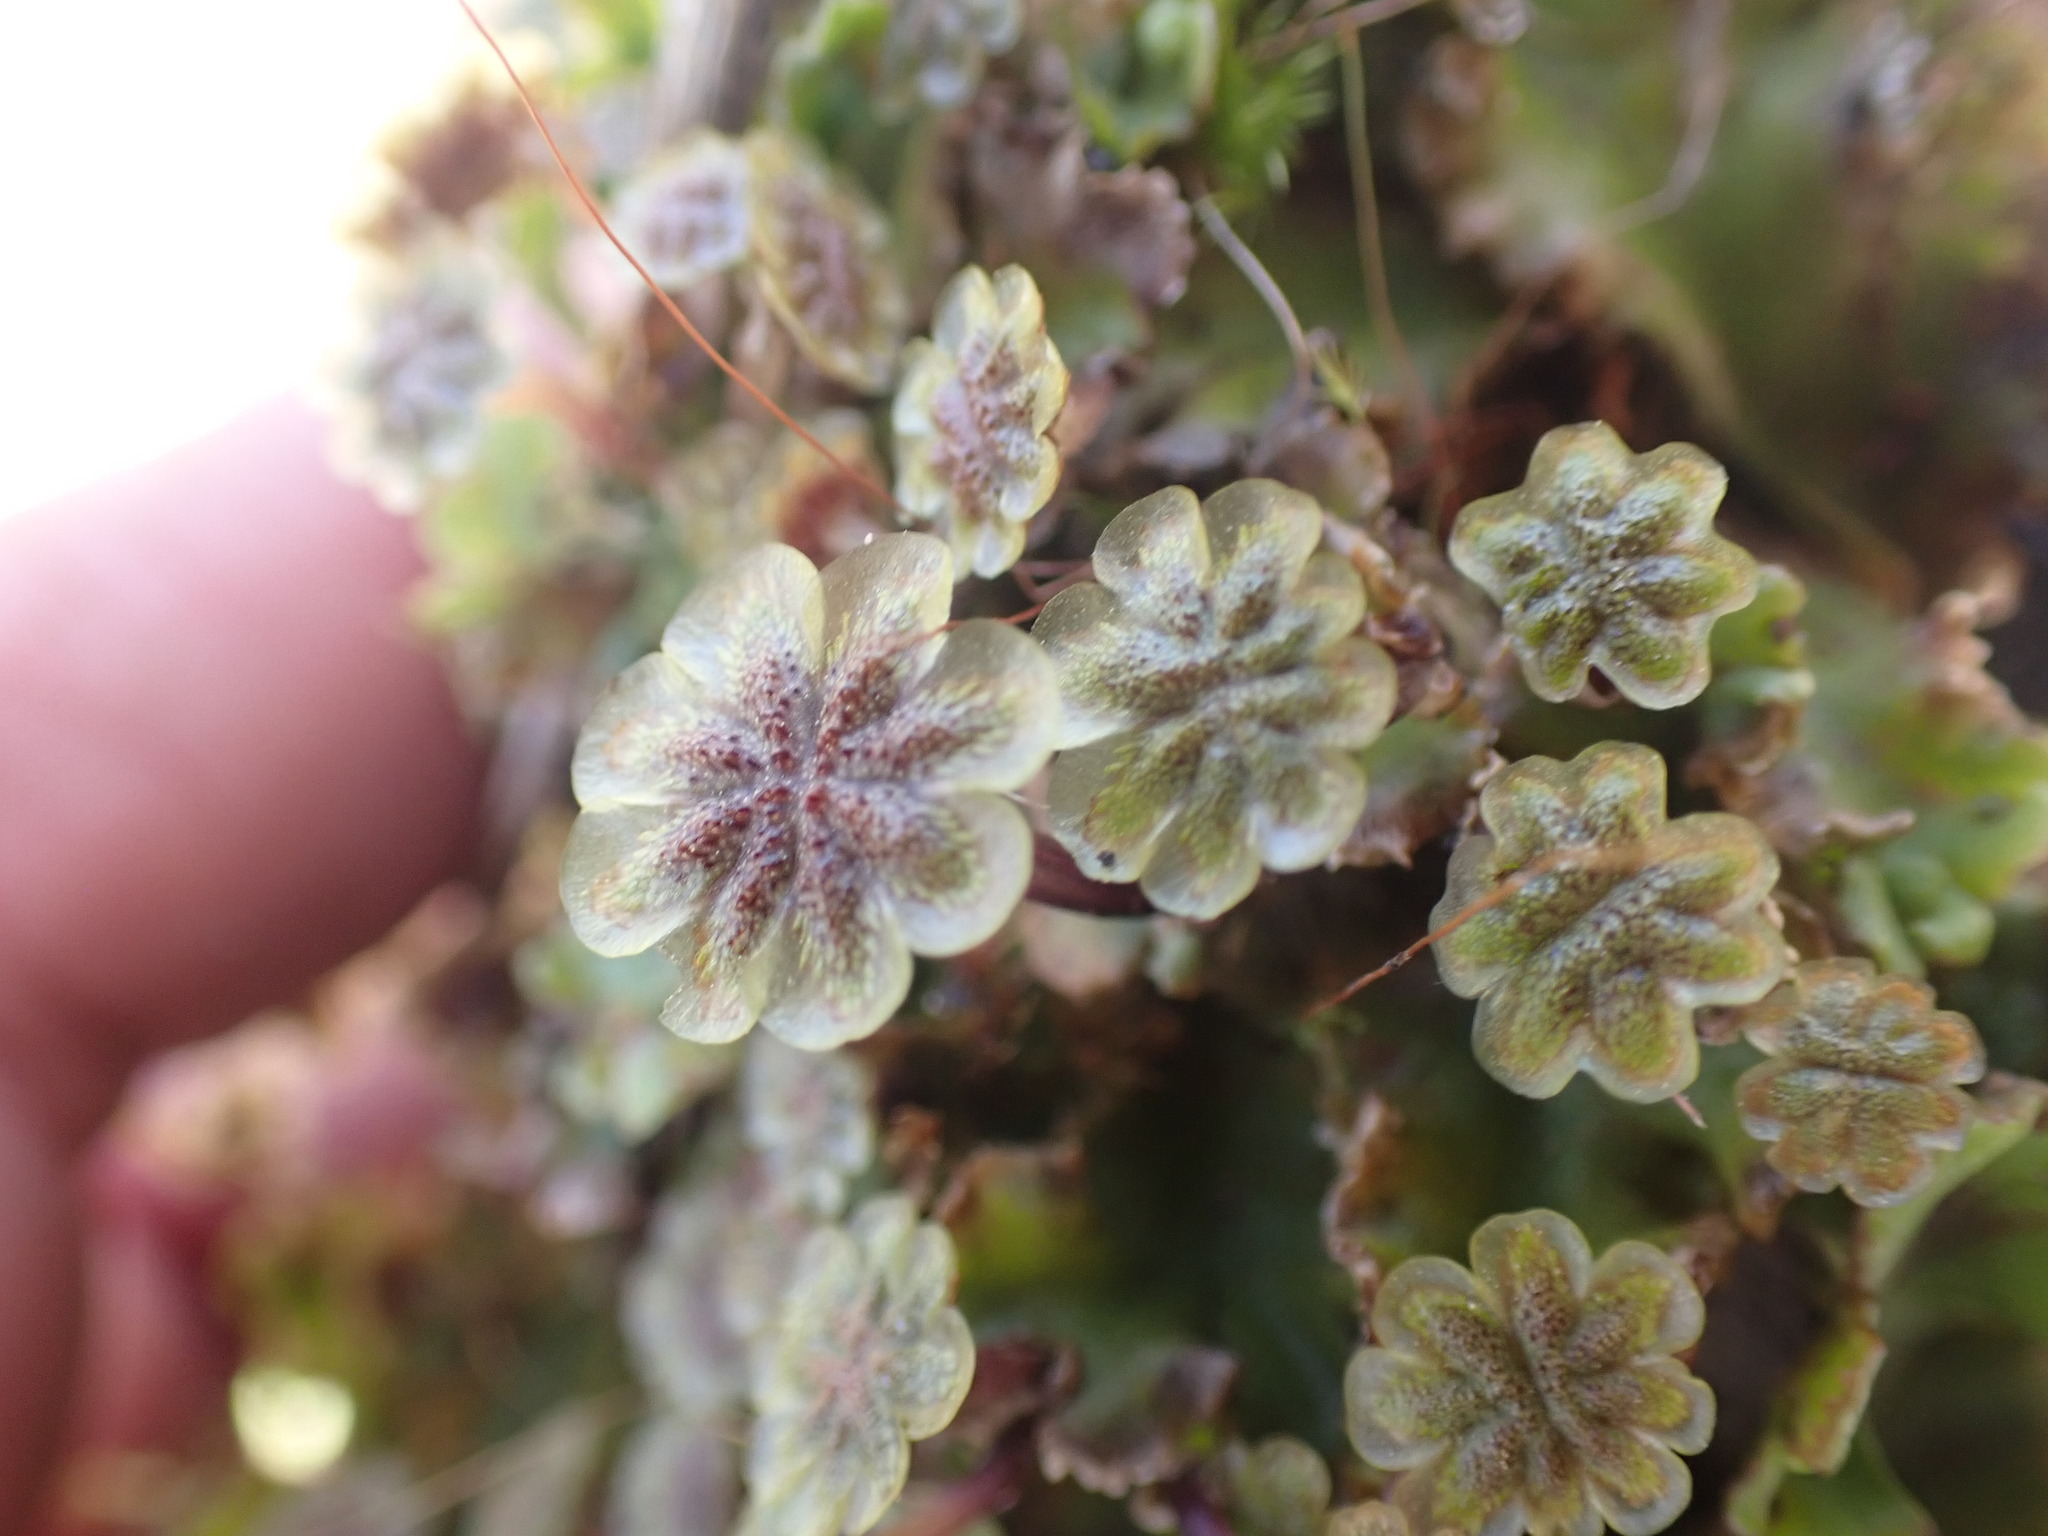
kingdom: Plantae
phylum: Marchantiophyta
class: Marchantiopsida
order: Marchantiales
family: Marchantiaceae
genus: Marchantia
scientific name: Marchantia polymorpha
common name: Common liverwort
